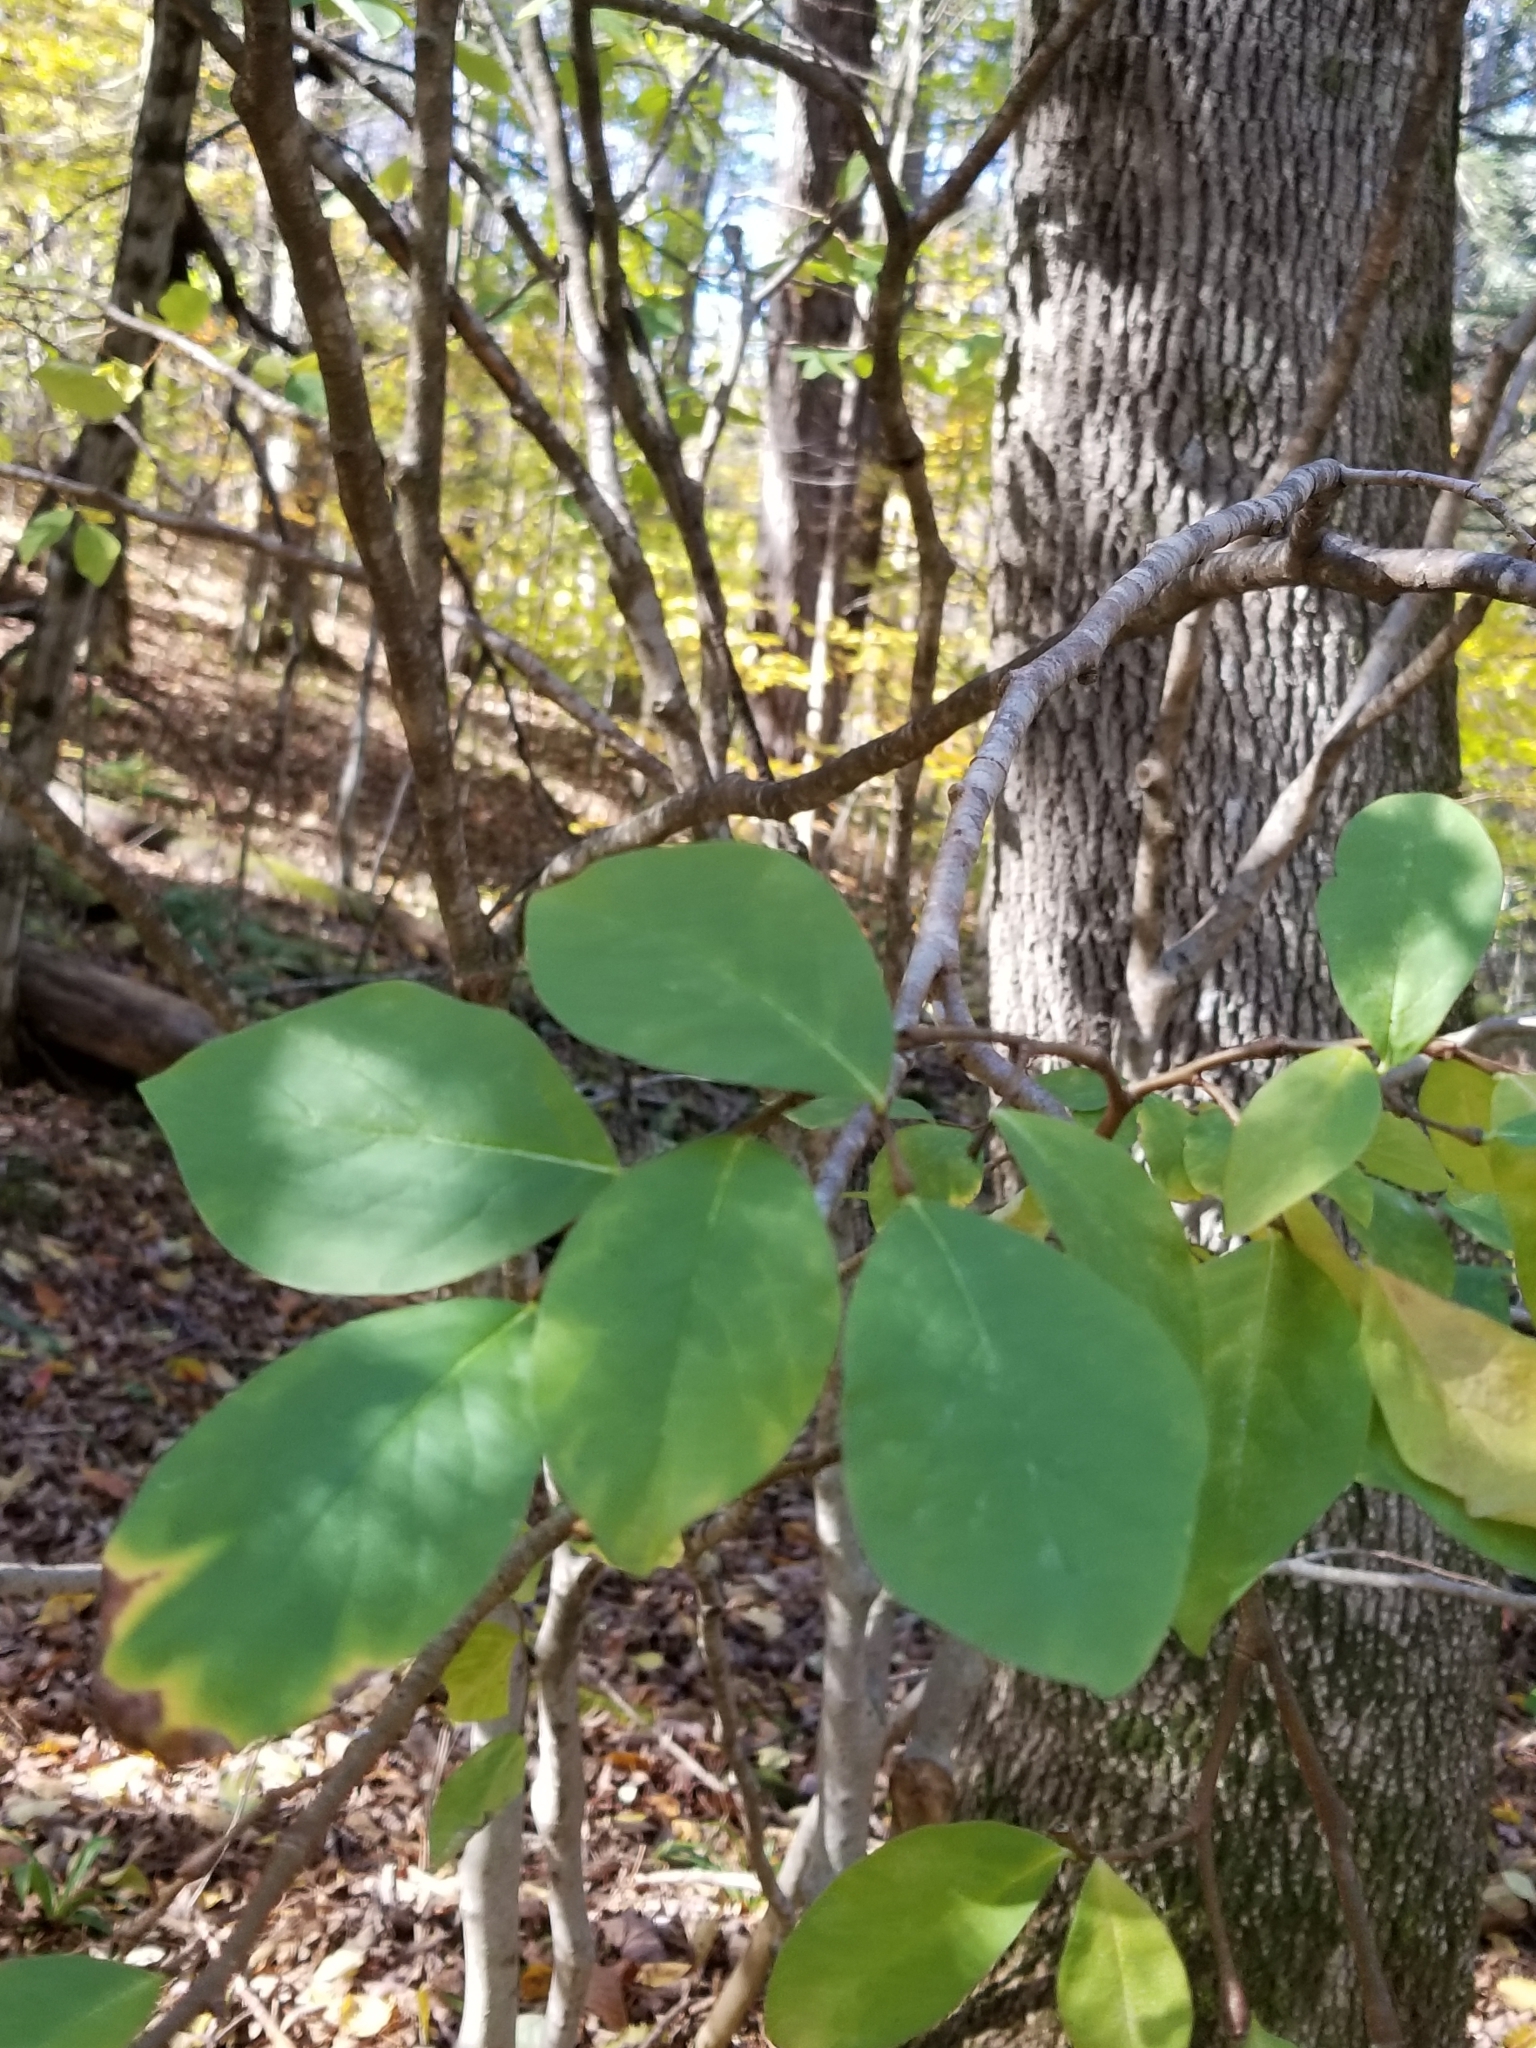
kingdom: Plantae
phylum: Tracheophyta
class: Magnoliopsida
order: Malvales
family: Thymelaeaceae
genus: Dirca
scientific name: Dirca palustris
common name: Leatherwood
